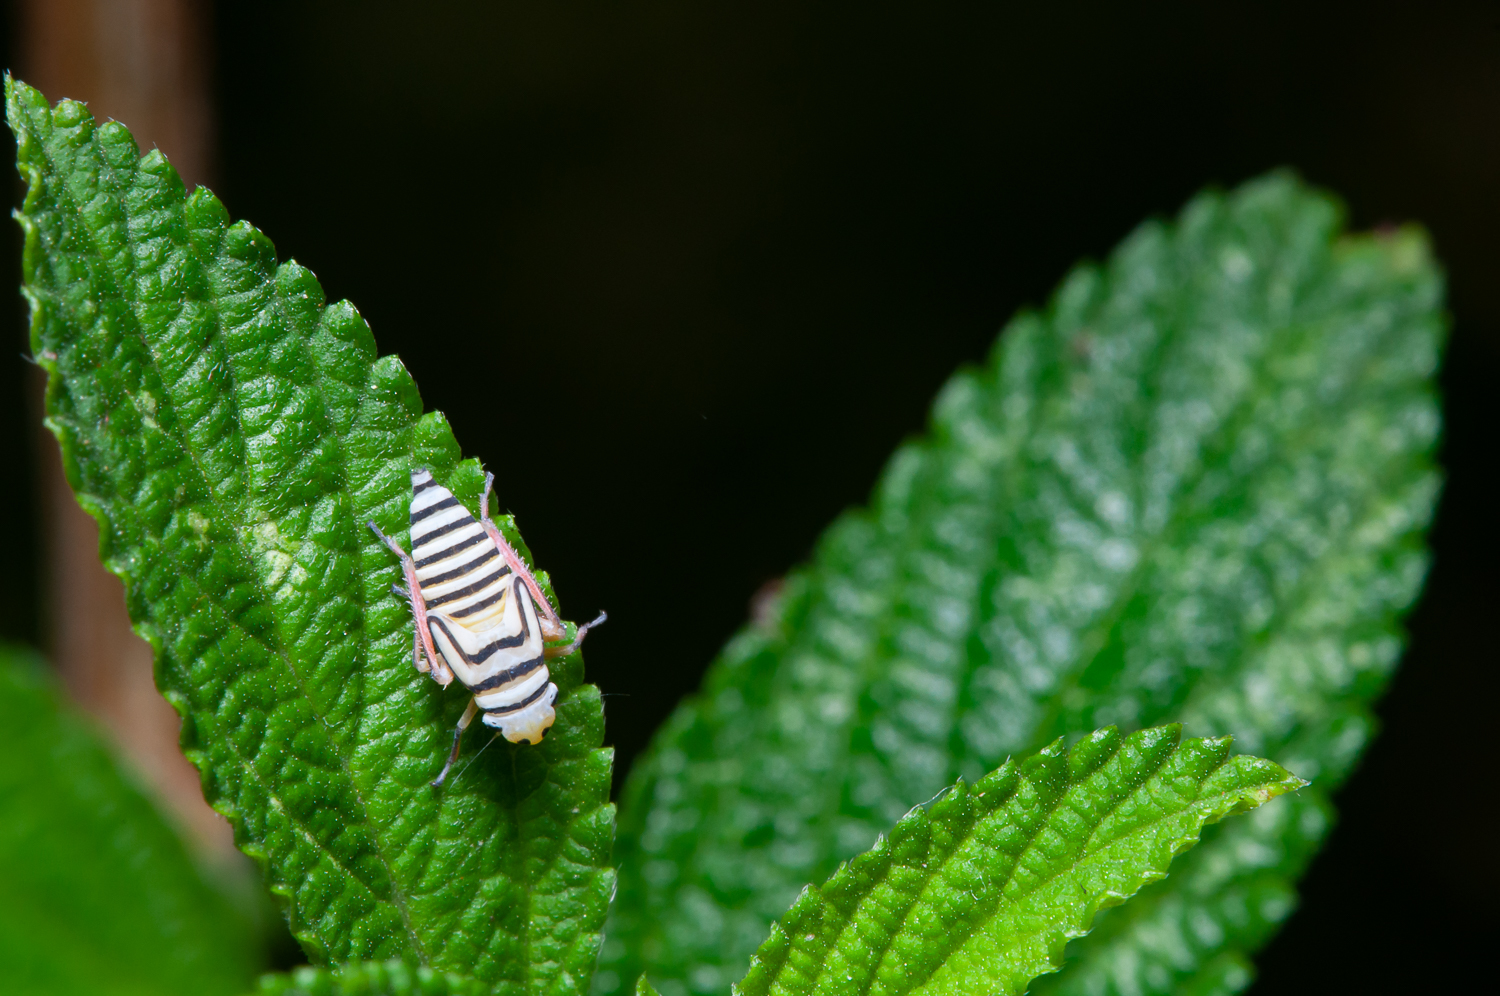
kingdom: Animalia
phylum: Arthropoda
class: Insecta
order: Hemiptera
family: Cicadellidae
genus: Agrosoma
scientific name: Agrosoma placetis
